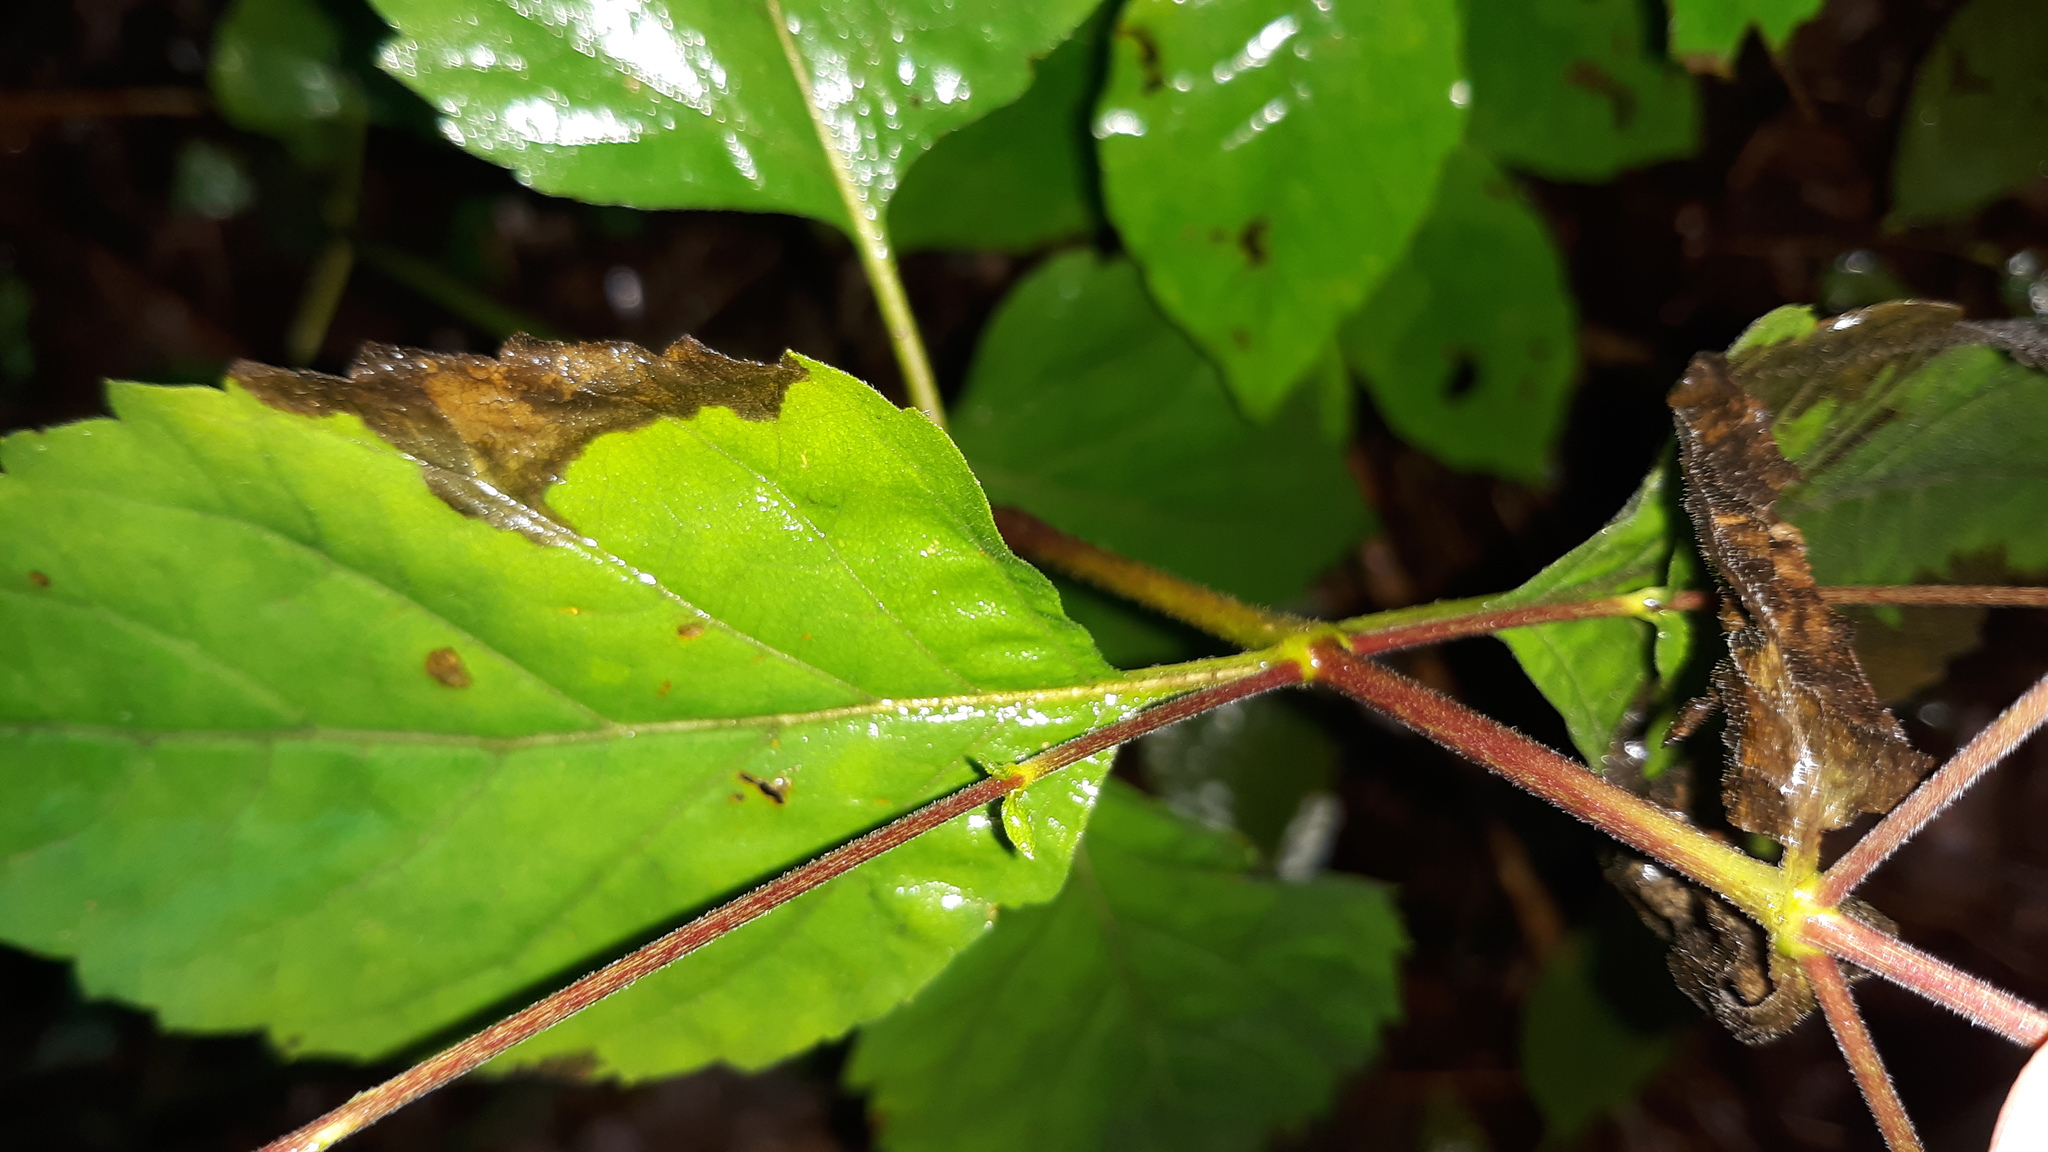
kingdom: Plantae
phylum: Tracheophyta
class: Magnoliopsida
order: Lamiales
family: Phrymaceae
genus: Phryma
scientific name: Phryma leptostachya
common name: American lopseed
